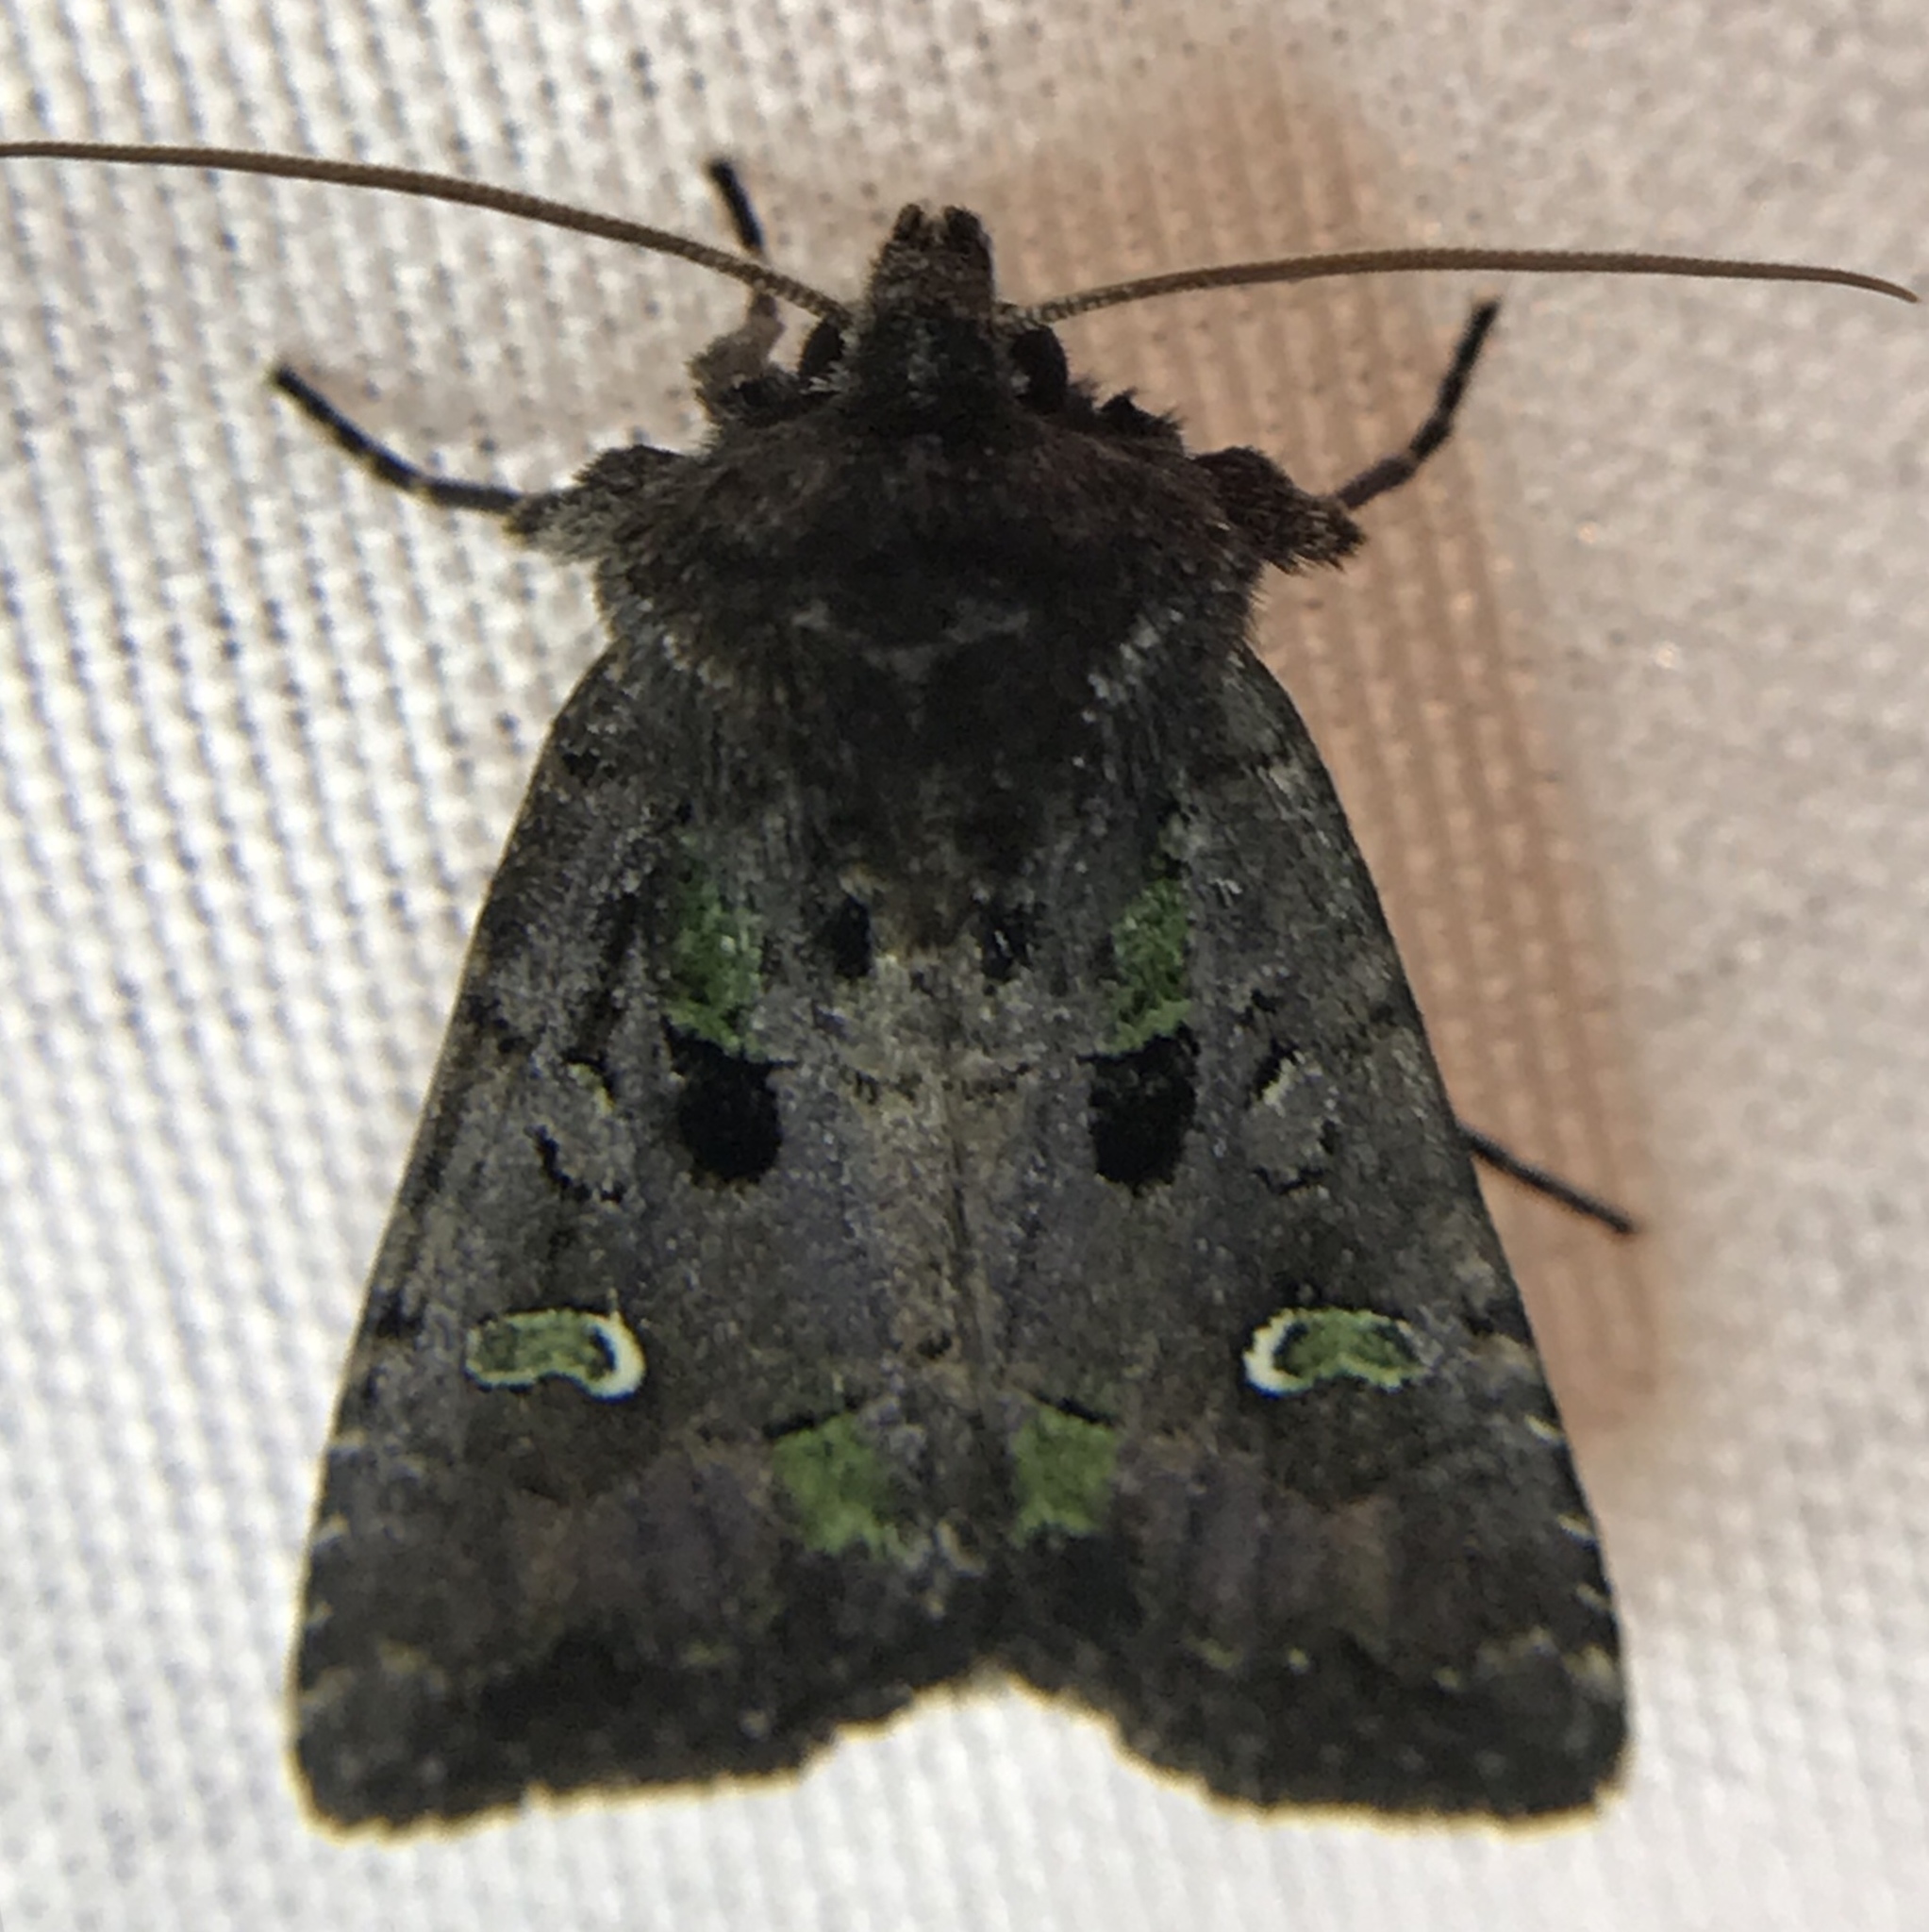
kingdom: Animalia
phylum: Arthropoda
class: Insecta
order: Lepidoptera
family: Noctuidae
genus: Lacinipolia
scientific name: Lacinipolia renigera
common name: Kidney-spotted minor
